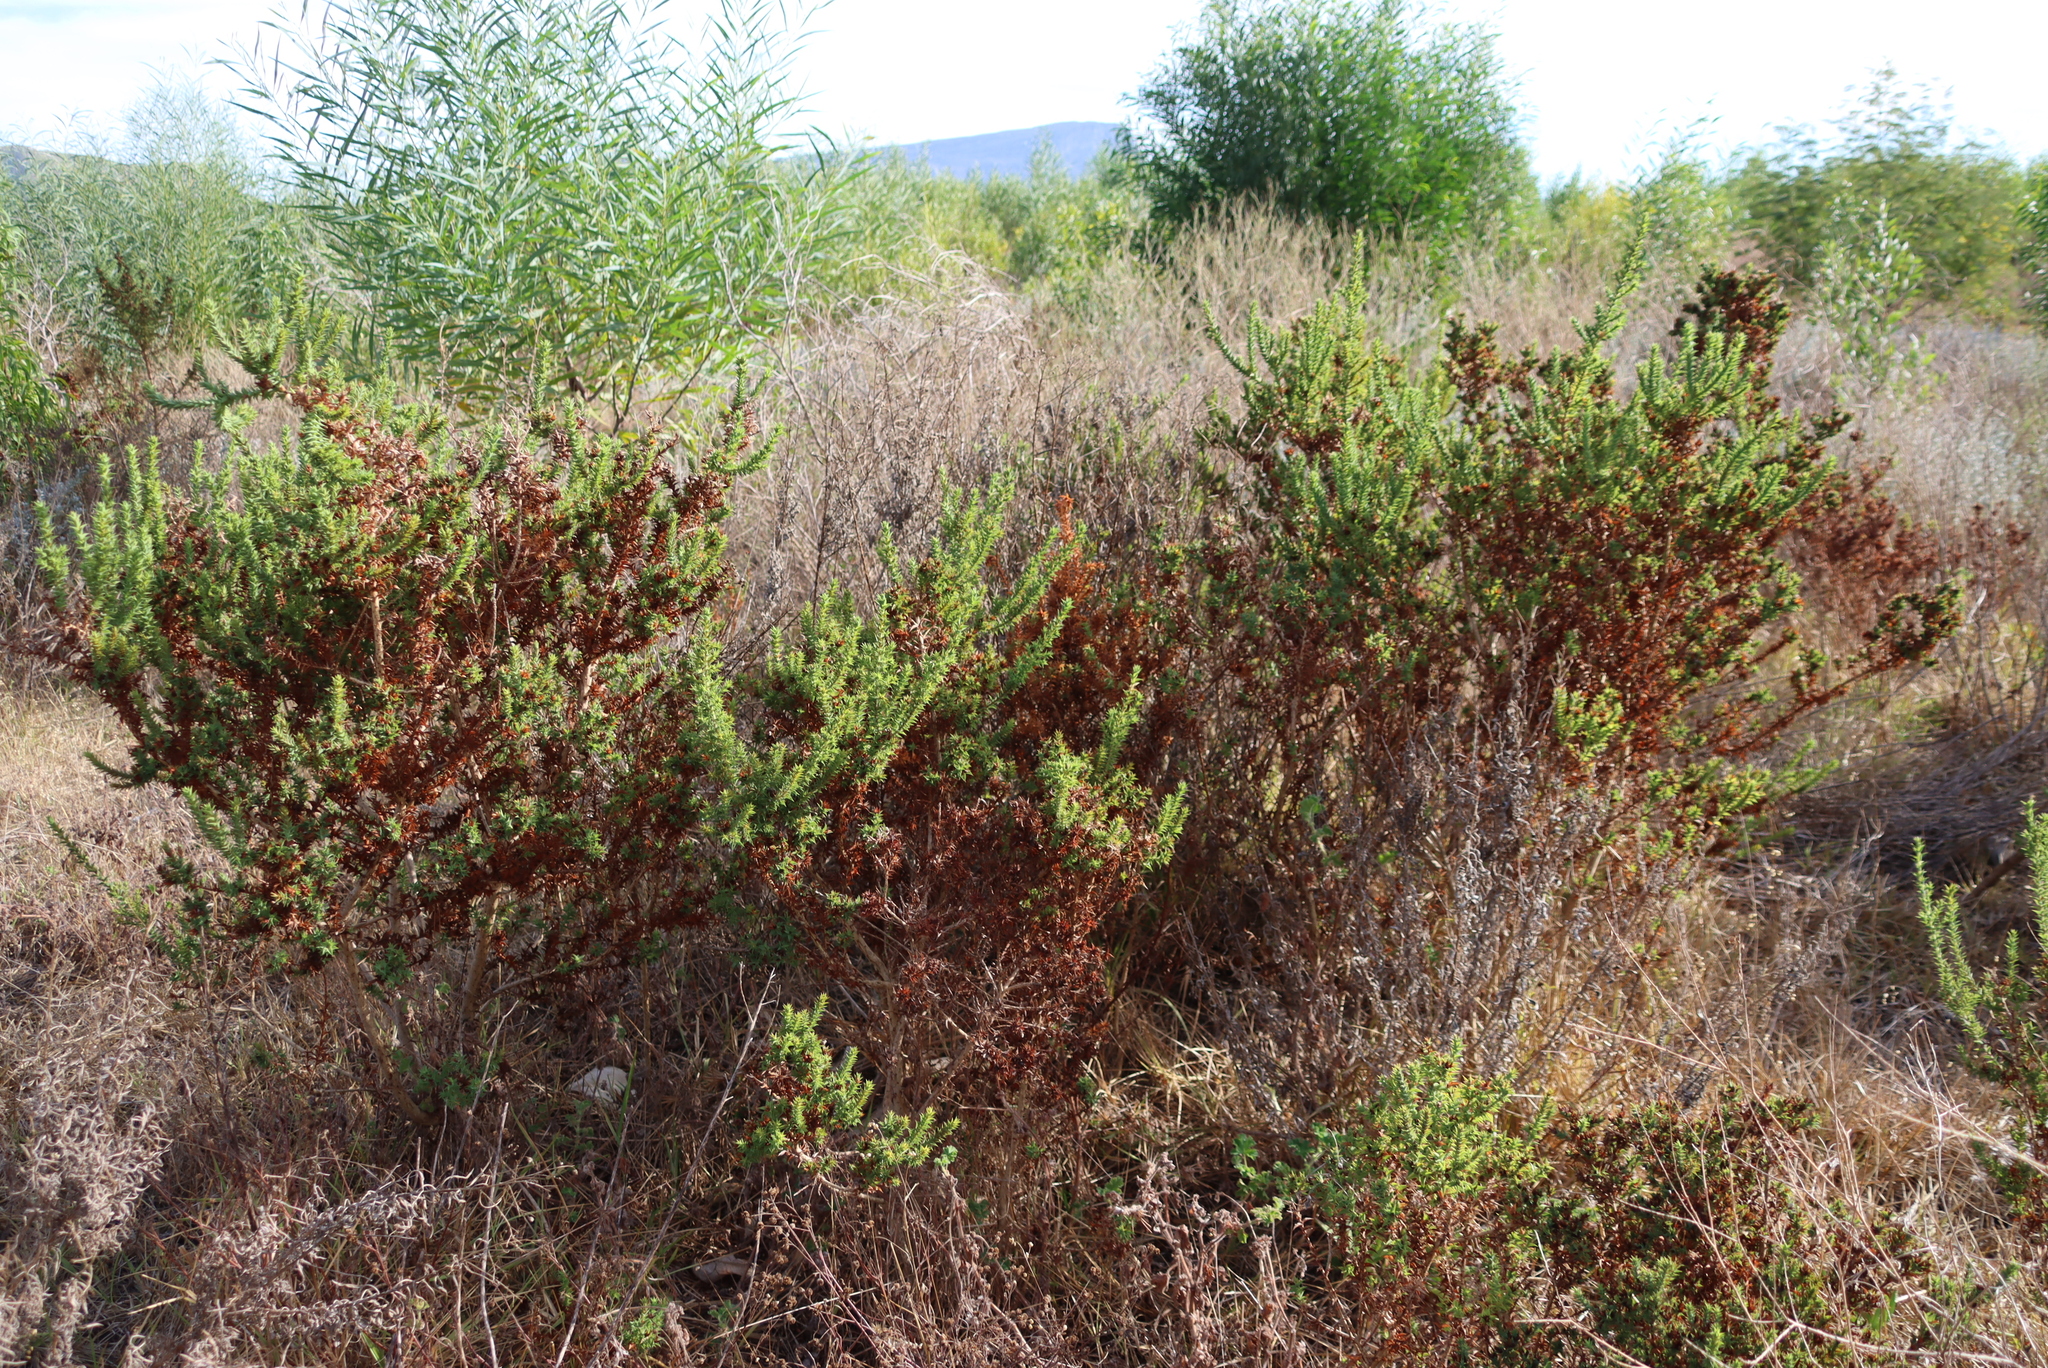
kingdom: Plantae
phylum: Tracheophyta
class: Magnoliopsida
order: Fabales
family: Fabaceae
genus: Aspalathus
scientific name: Aspalathus cordata
